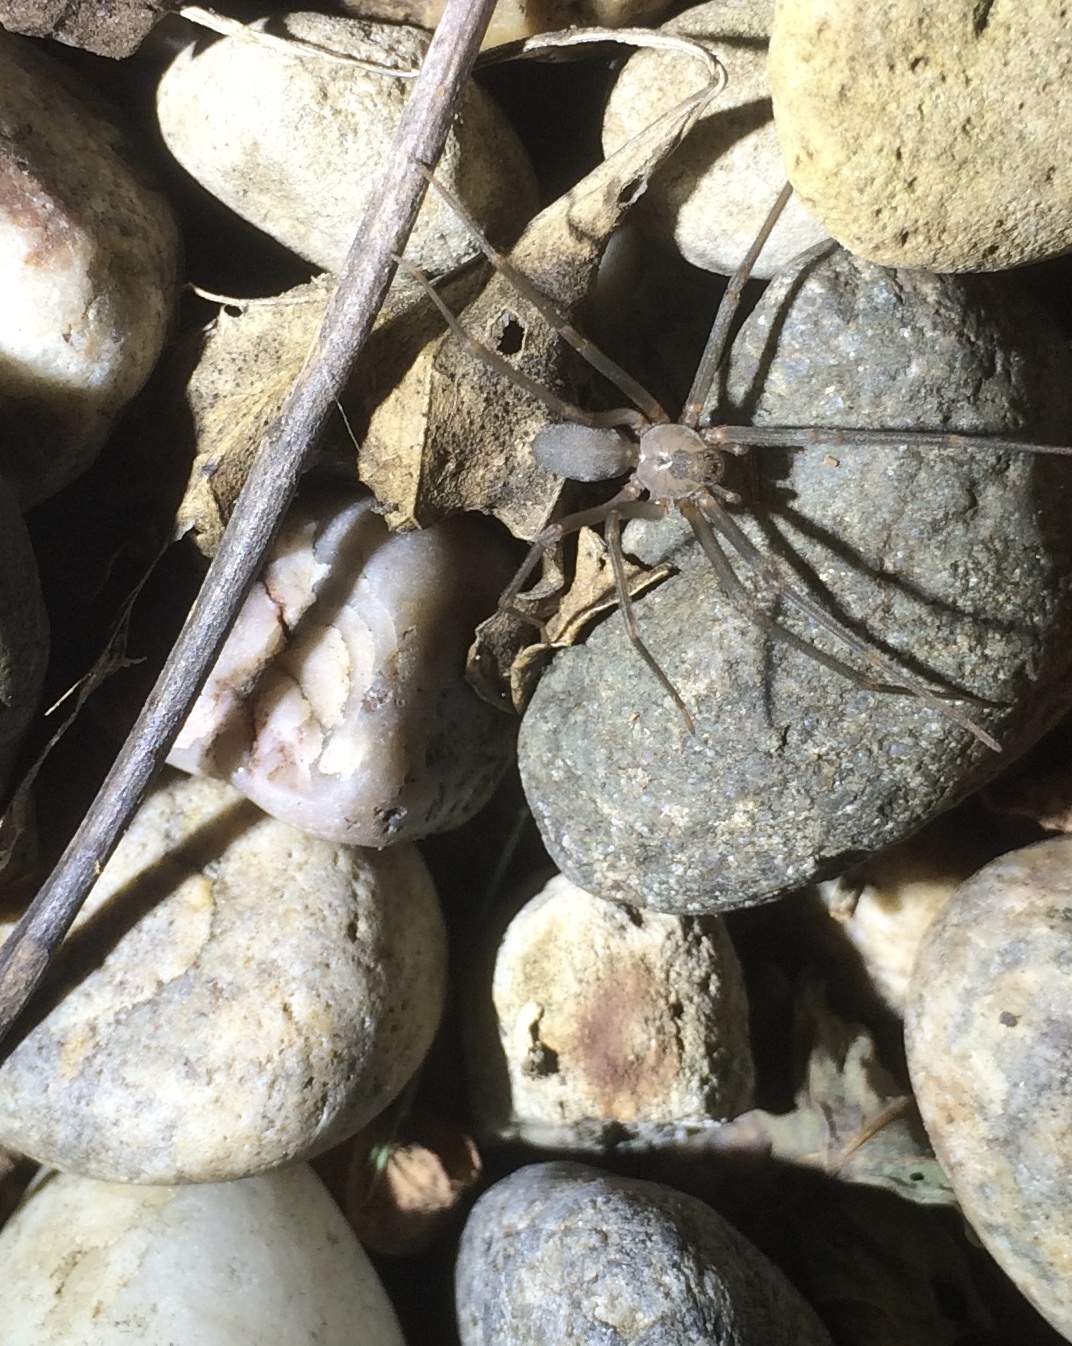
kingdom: Animalia
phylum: Arthropoda
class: Arachnida
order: Araneae
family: Sicariidae
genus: Loxosceles
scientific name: Loxosceles reclusa
